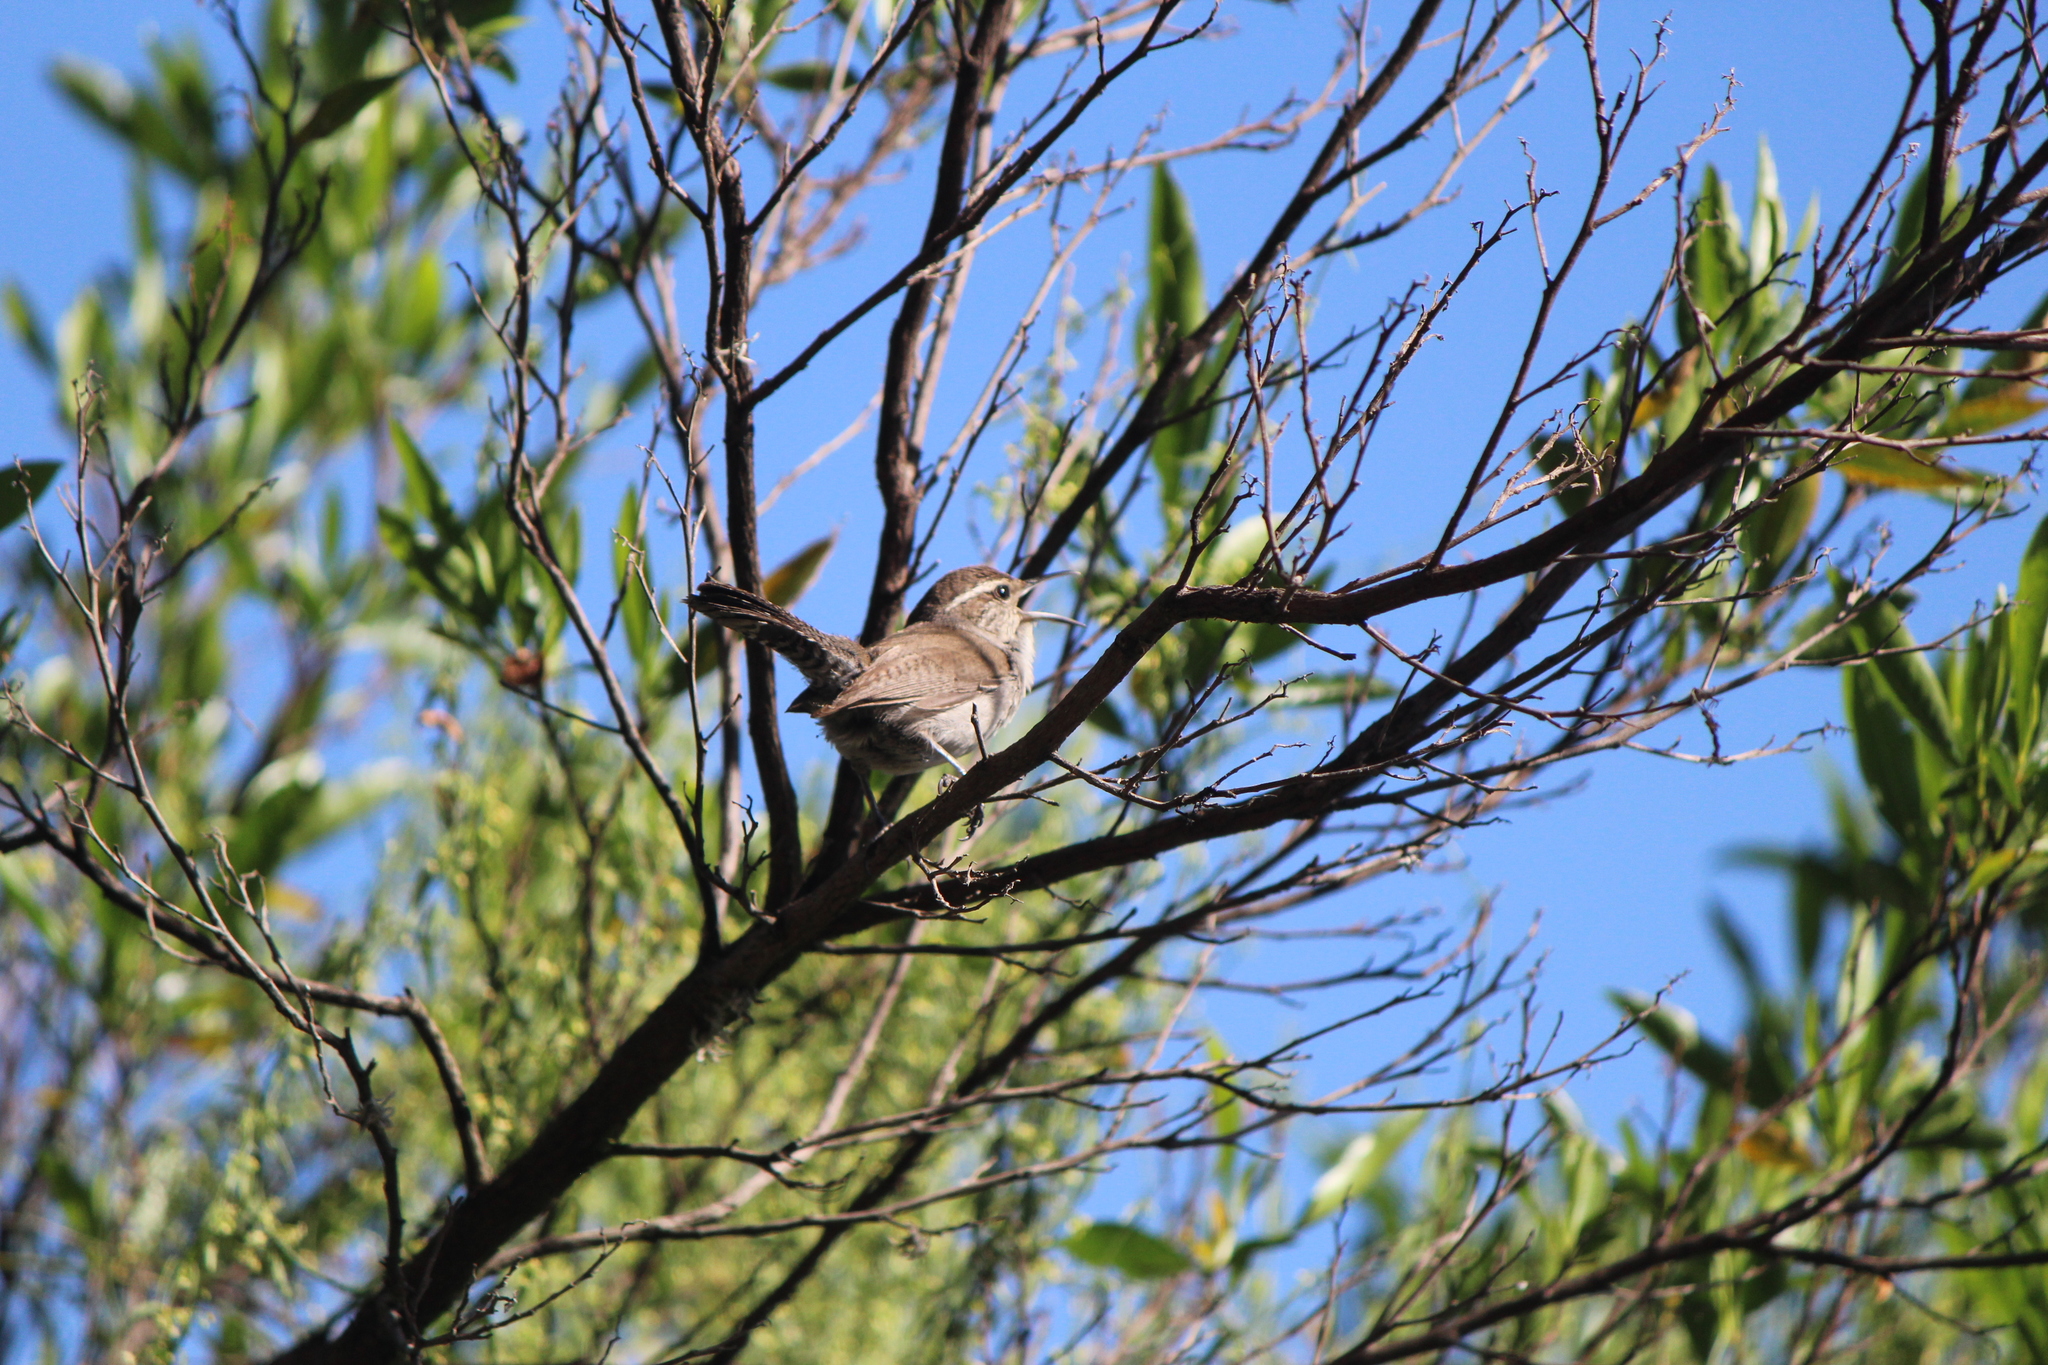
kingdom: Animalia
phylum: Chordata
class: Aves
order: Passeriformes
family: Troglodytidae
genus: Thryomanes
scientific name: Thryomanes bewickii
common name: Bewick's wren
